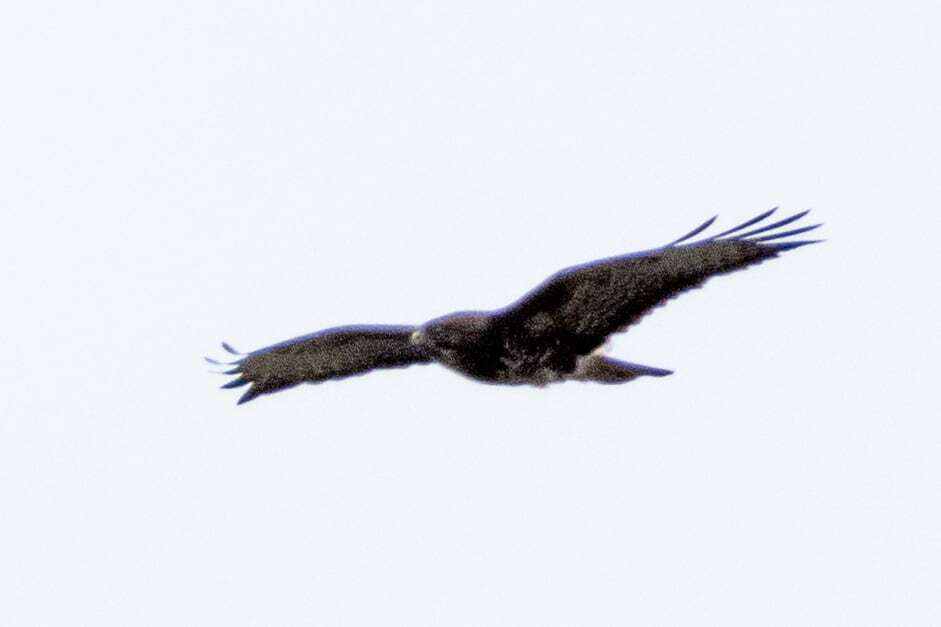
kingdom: Animalia
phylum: Chordata
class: Aves
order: Accipitriformes
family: Accipitridae
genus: Buteo
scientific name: Buteo buteo
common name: Common buzzard
